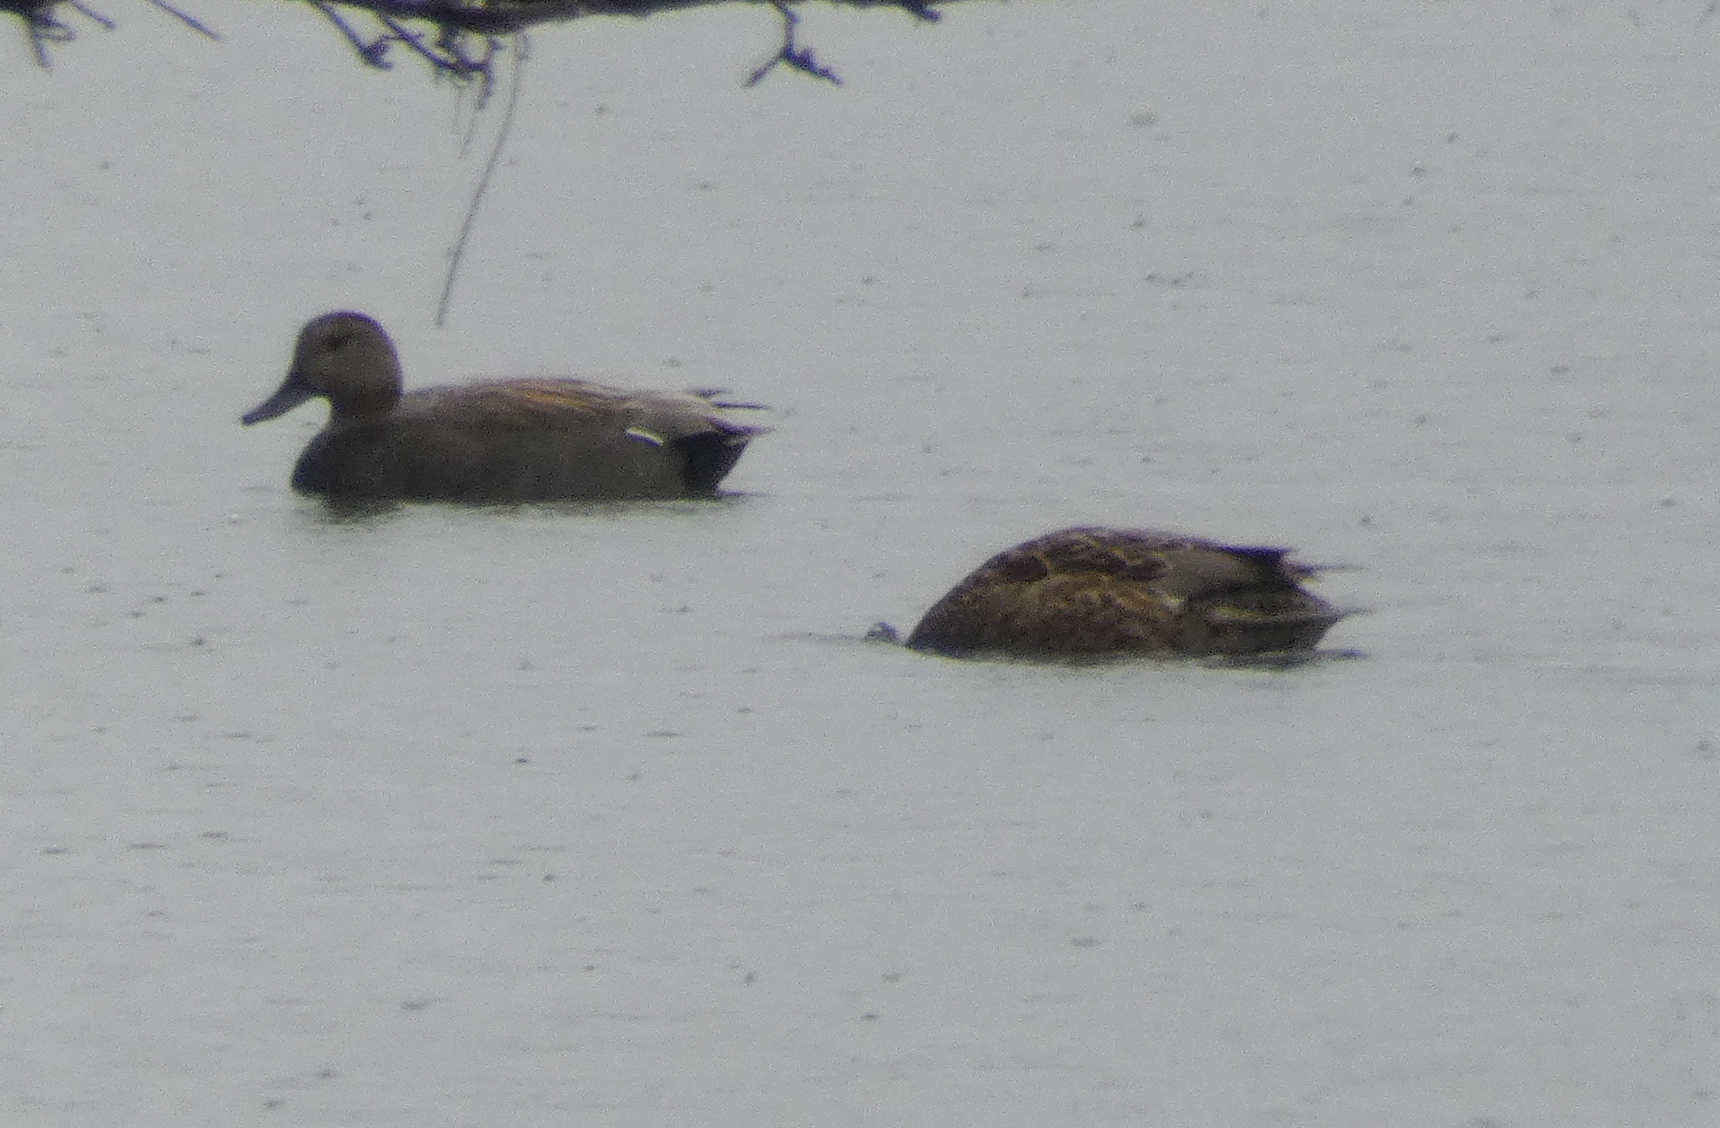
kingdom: Animalia
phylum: Chordata
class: Aves
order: Anseriformes
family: Anatidae
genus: Mareca
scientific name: Mareca strepera
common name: Gadwall
